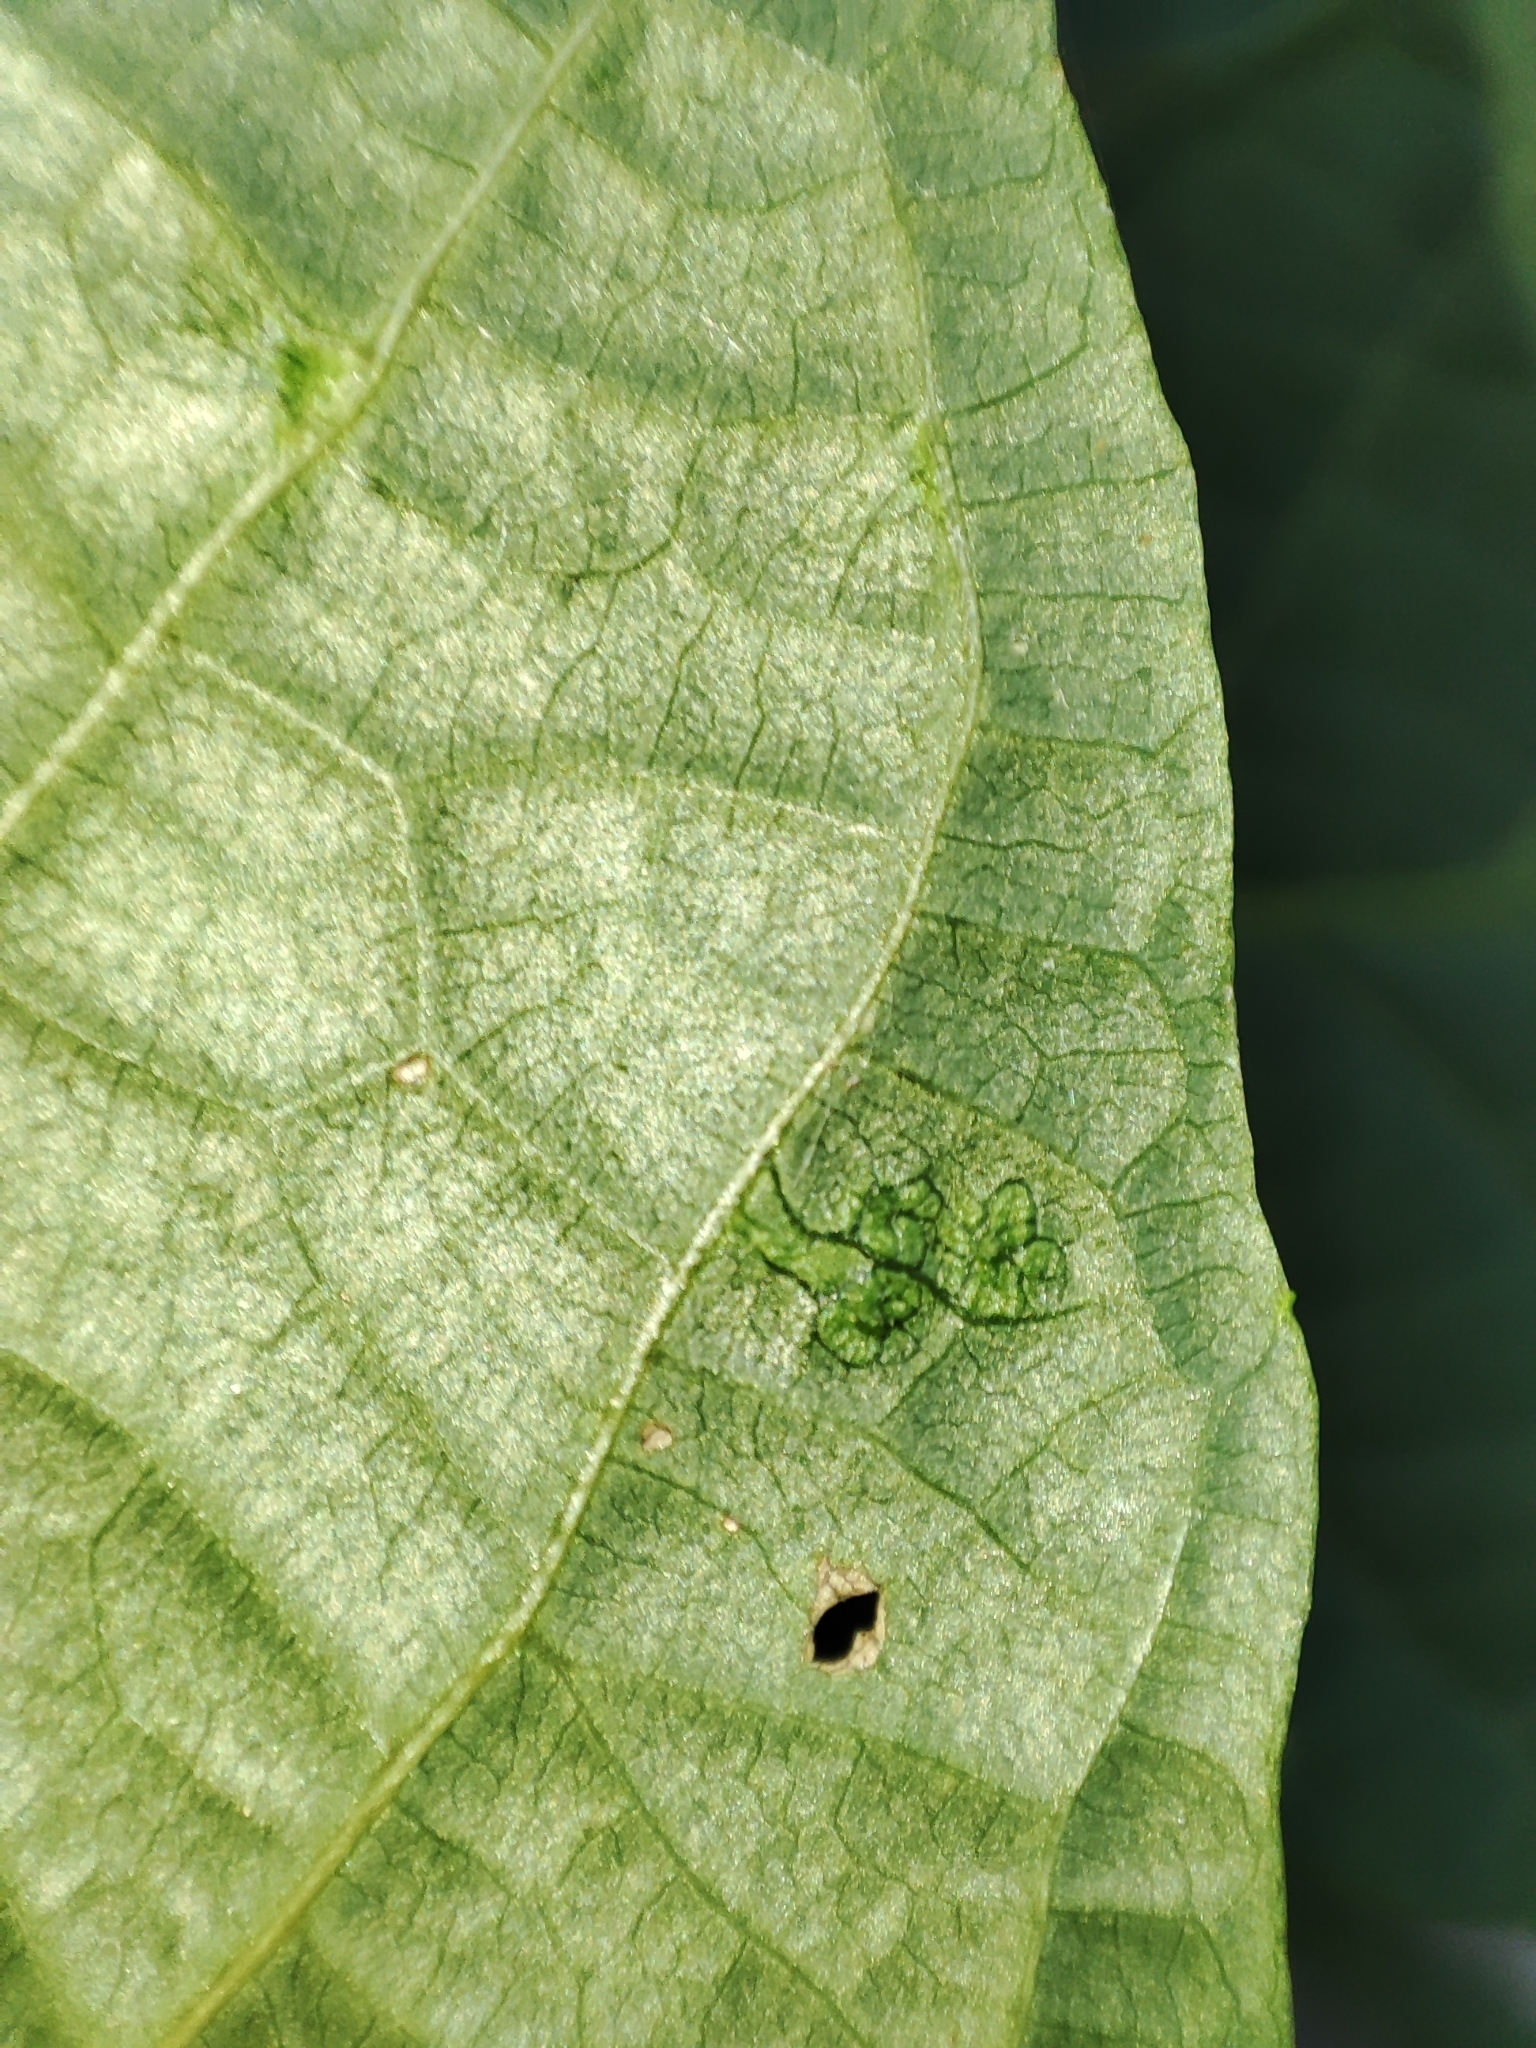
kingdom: Plantae
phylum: Tracheophyta
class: Magnoliopsida
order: Fagales
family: Juglandaceae
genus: Juglans
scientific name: Juglans regia
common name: Walnut
